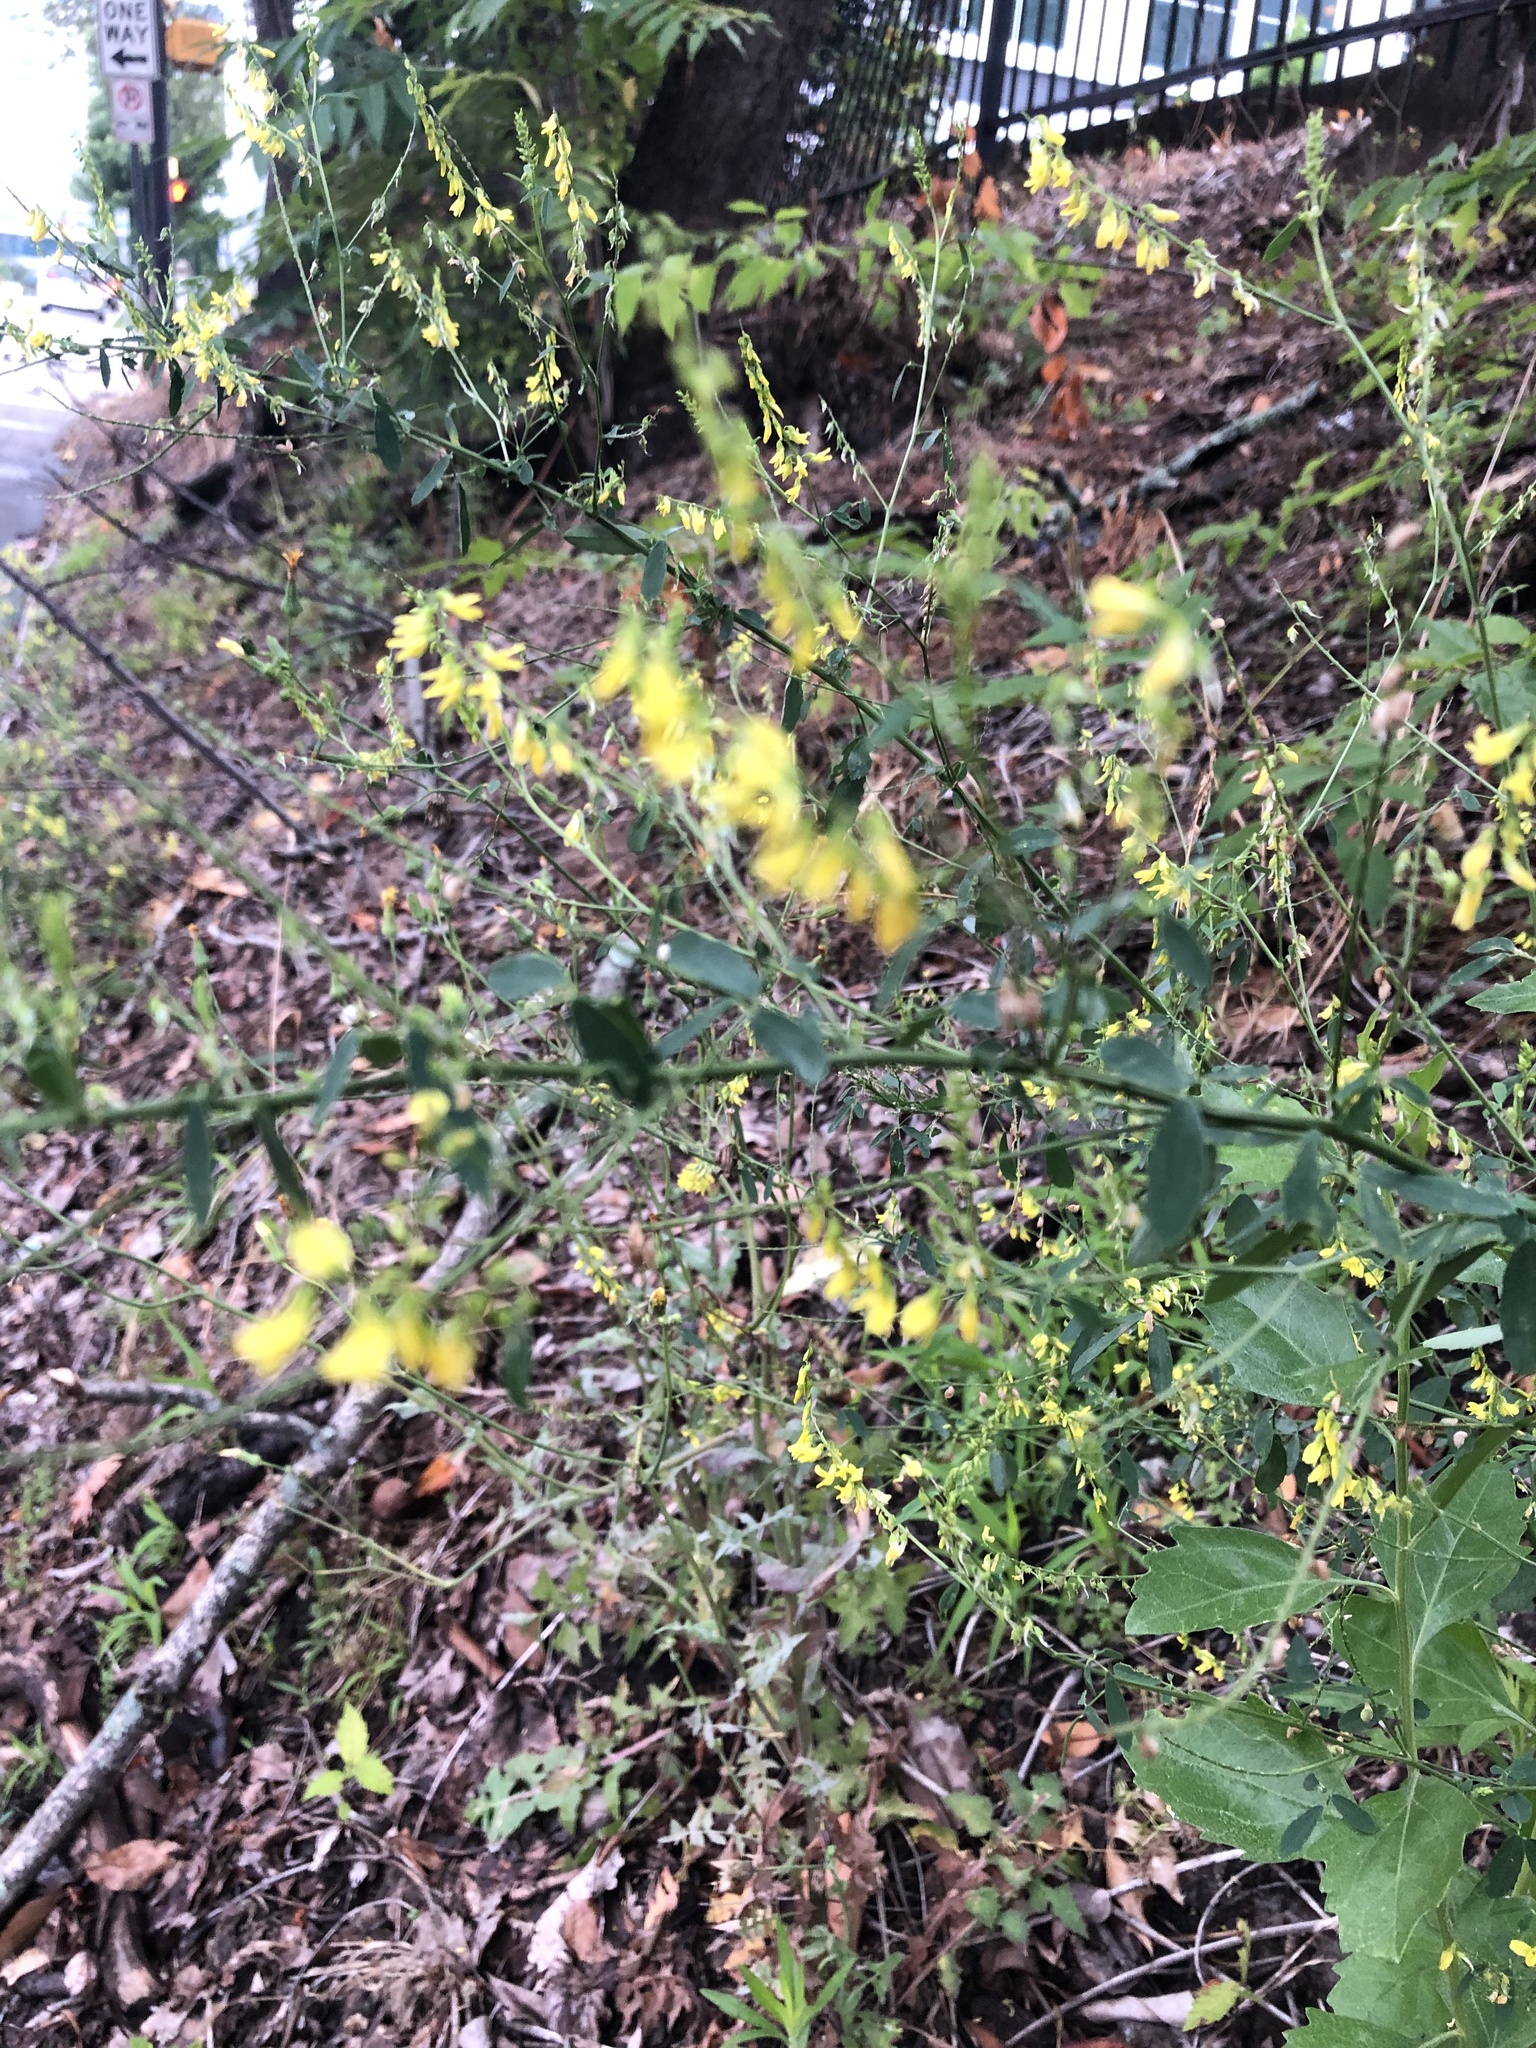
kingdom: Plantae
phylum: Tracheophyta
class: Magnoliopsida
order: Fabales
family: Fabaceae
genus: Melilotus
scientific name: Melilotus officinalis
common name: Sweetclover
